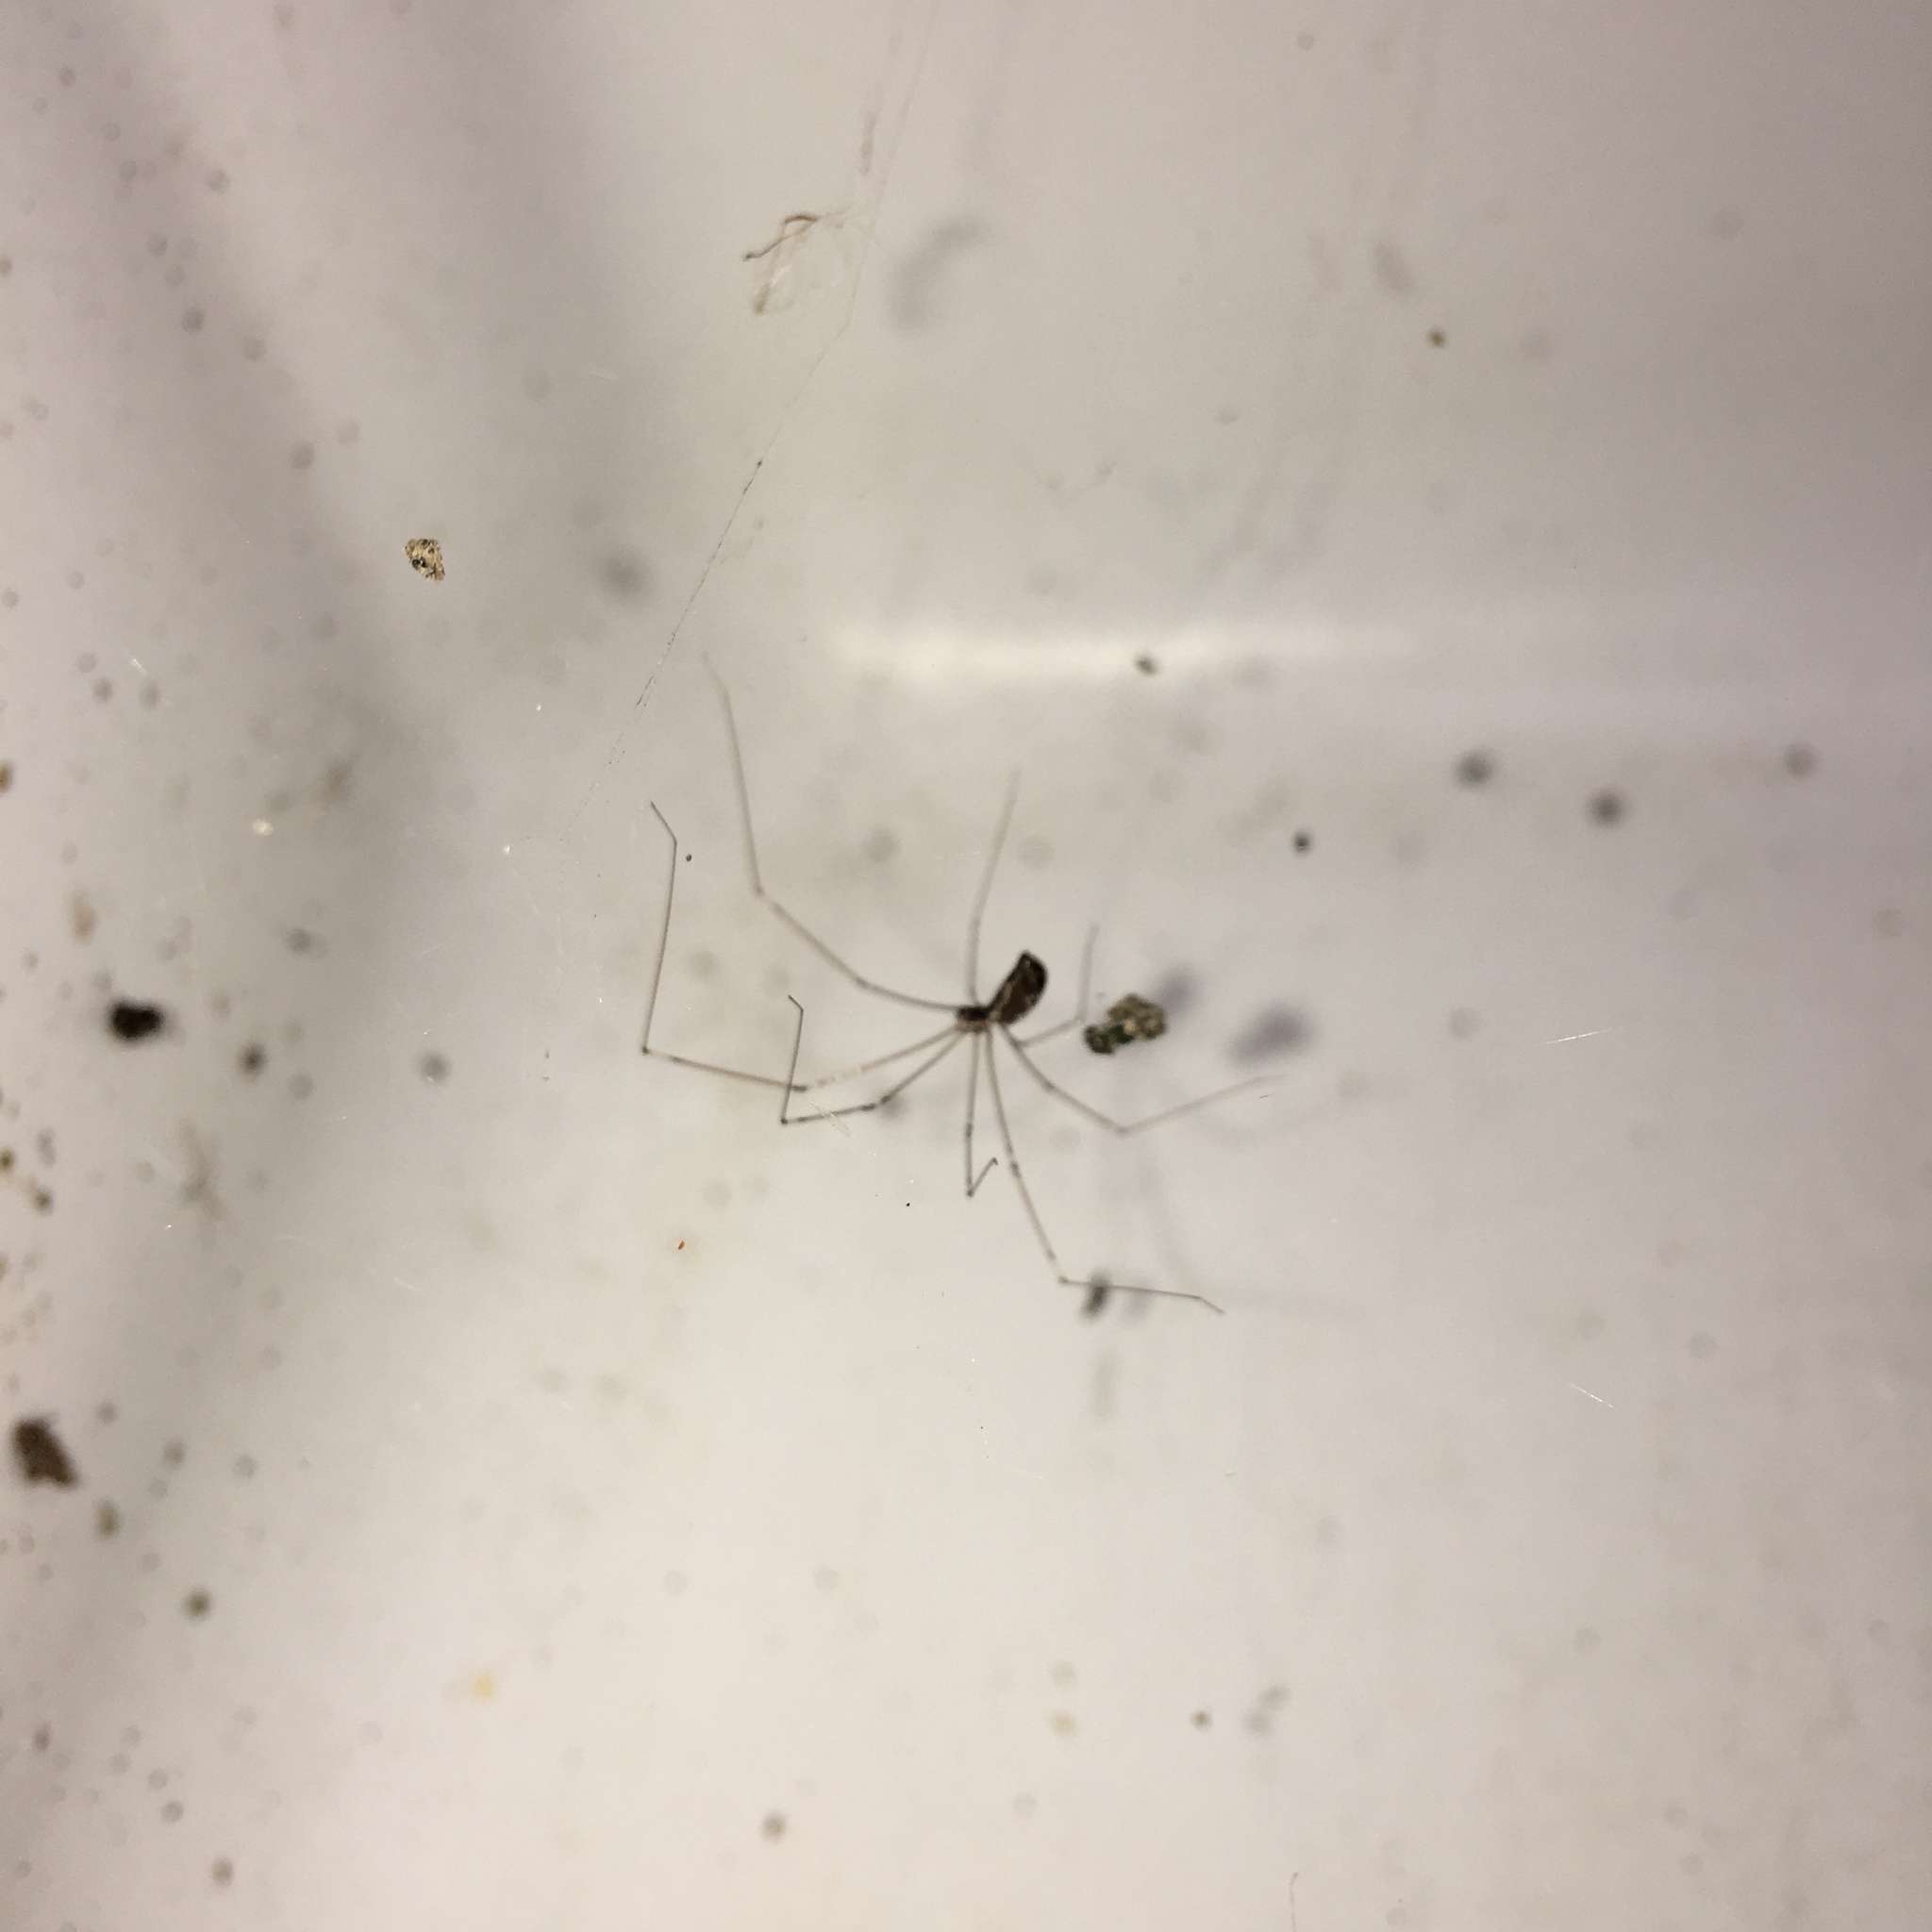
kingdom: Animalia
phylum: Arthropoda
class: Arachnida
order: Araneae
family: Pholcidae
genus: Holocnemus
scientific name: Holocnemus pluchei
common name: Marbled cellar spider
